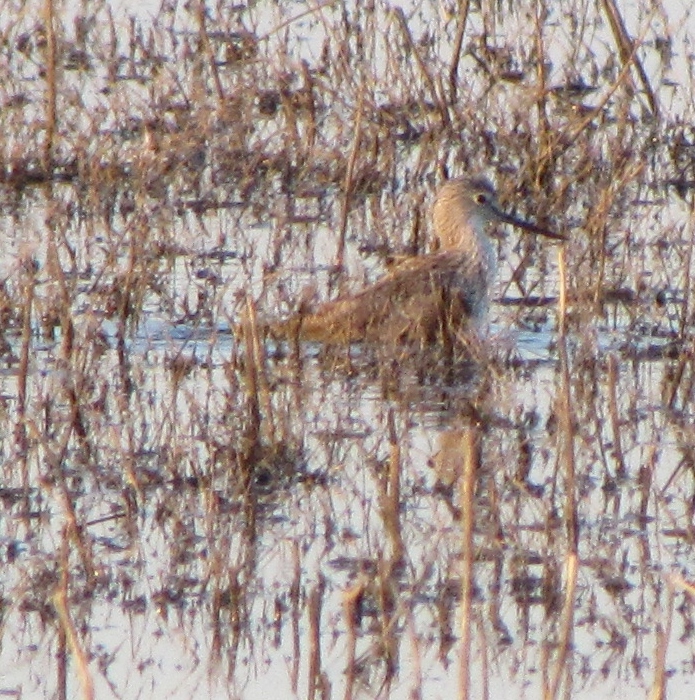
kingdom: Animalia
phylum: Chordata
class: Aves
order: Charadriiformes
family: Scolopacidae
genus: Tringa
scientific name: Tringa melanoleuca
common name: Greater yellowlegs
